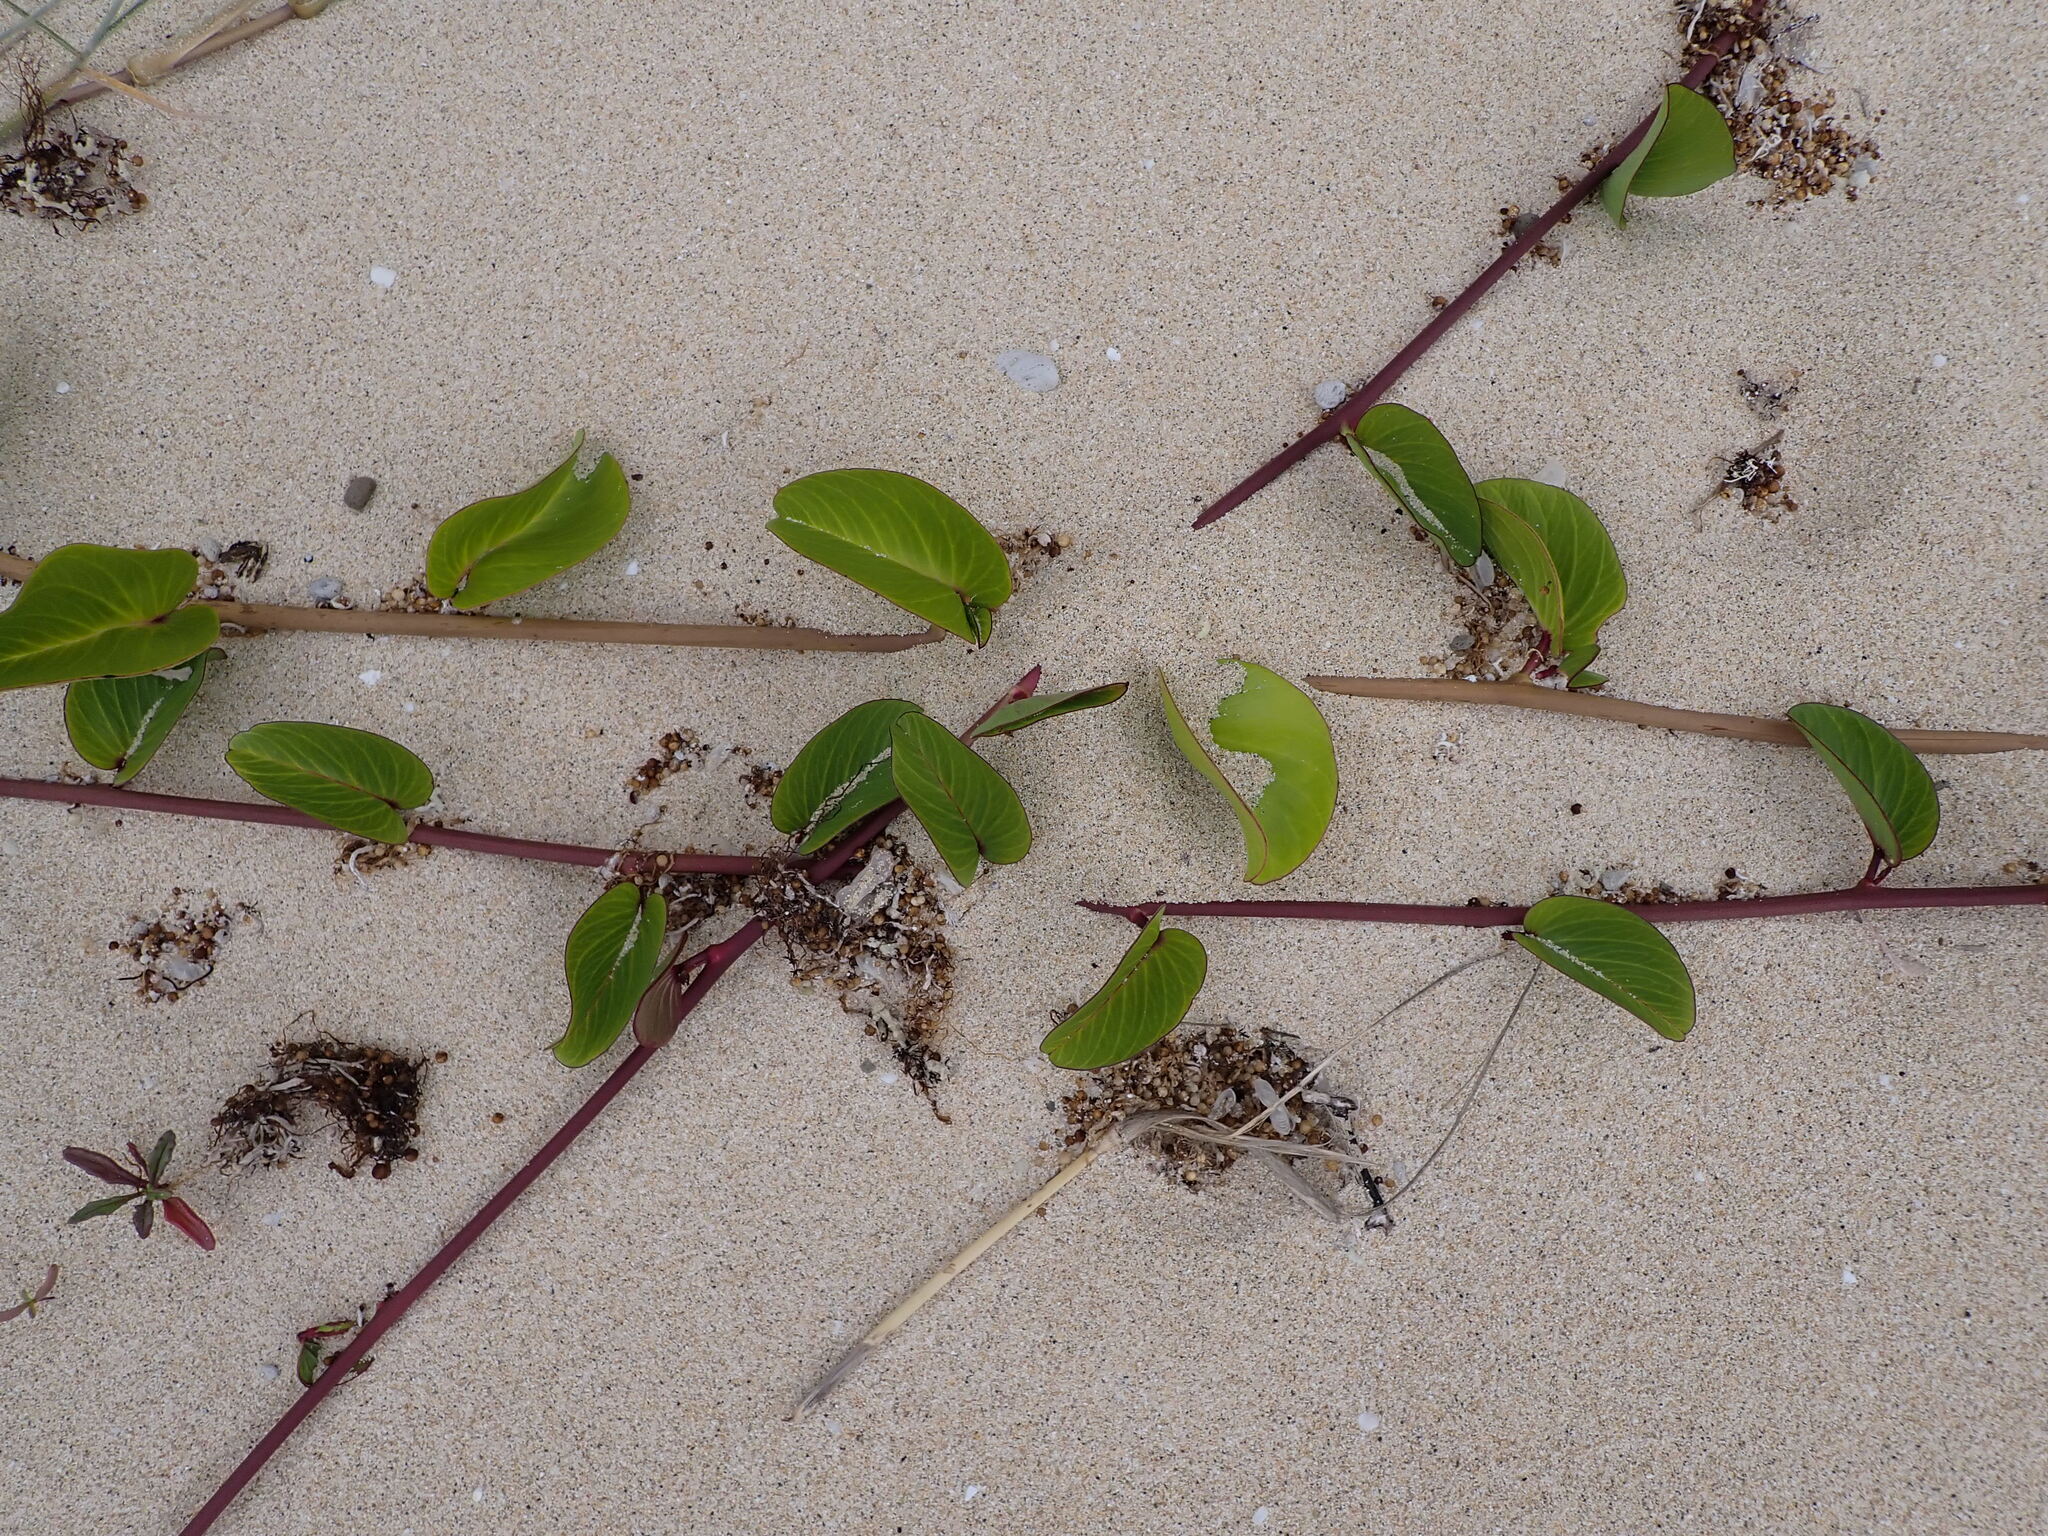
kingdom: Plantae
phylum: Tracheophyta
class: Magnoliopsida
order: Solanales
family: Convolvulaceae
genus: Ipomoea
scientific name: Ipomoea pes-caprae
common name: Beach morning glory
